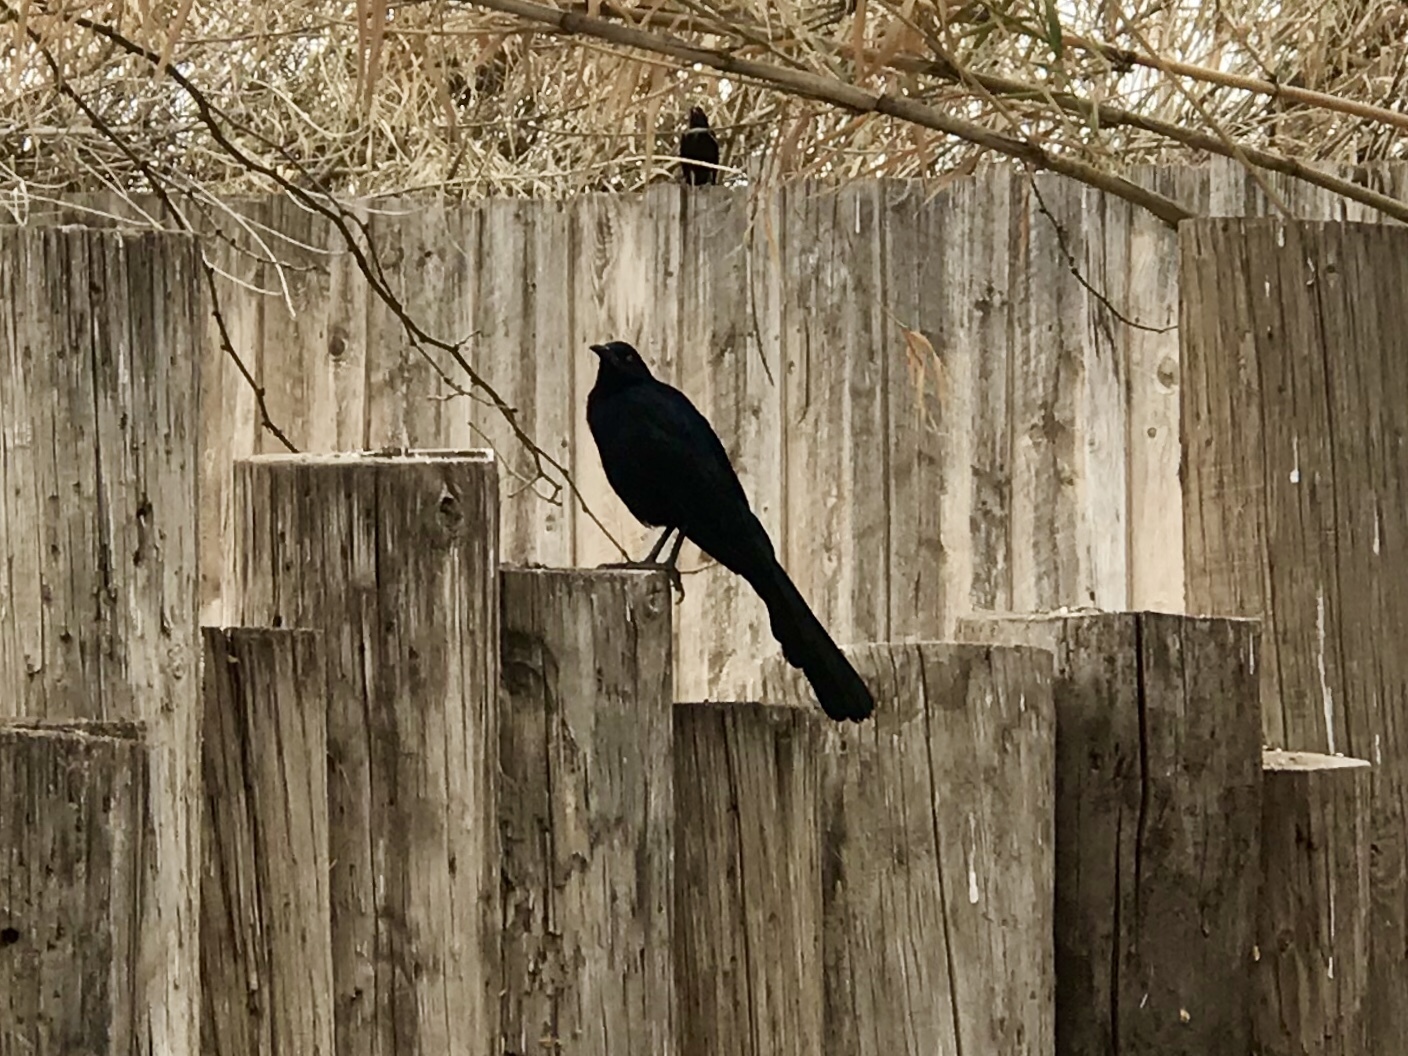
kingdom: Animalia
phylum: Chordata
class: Aves
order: Passeriformes
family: Icteridae
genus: Quiscalus
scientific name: Quiscalus mexicanus
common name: Great-tailed grackle
